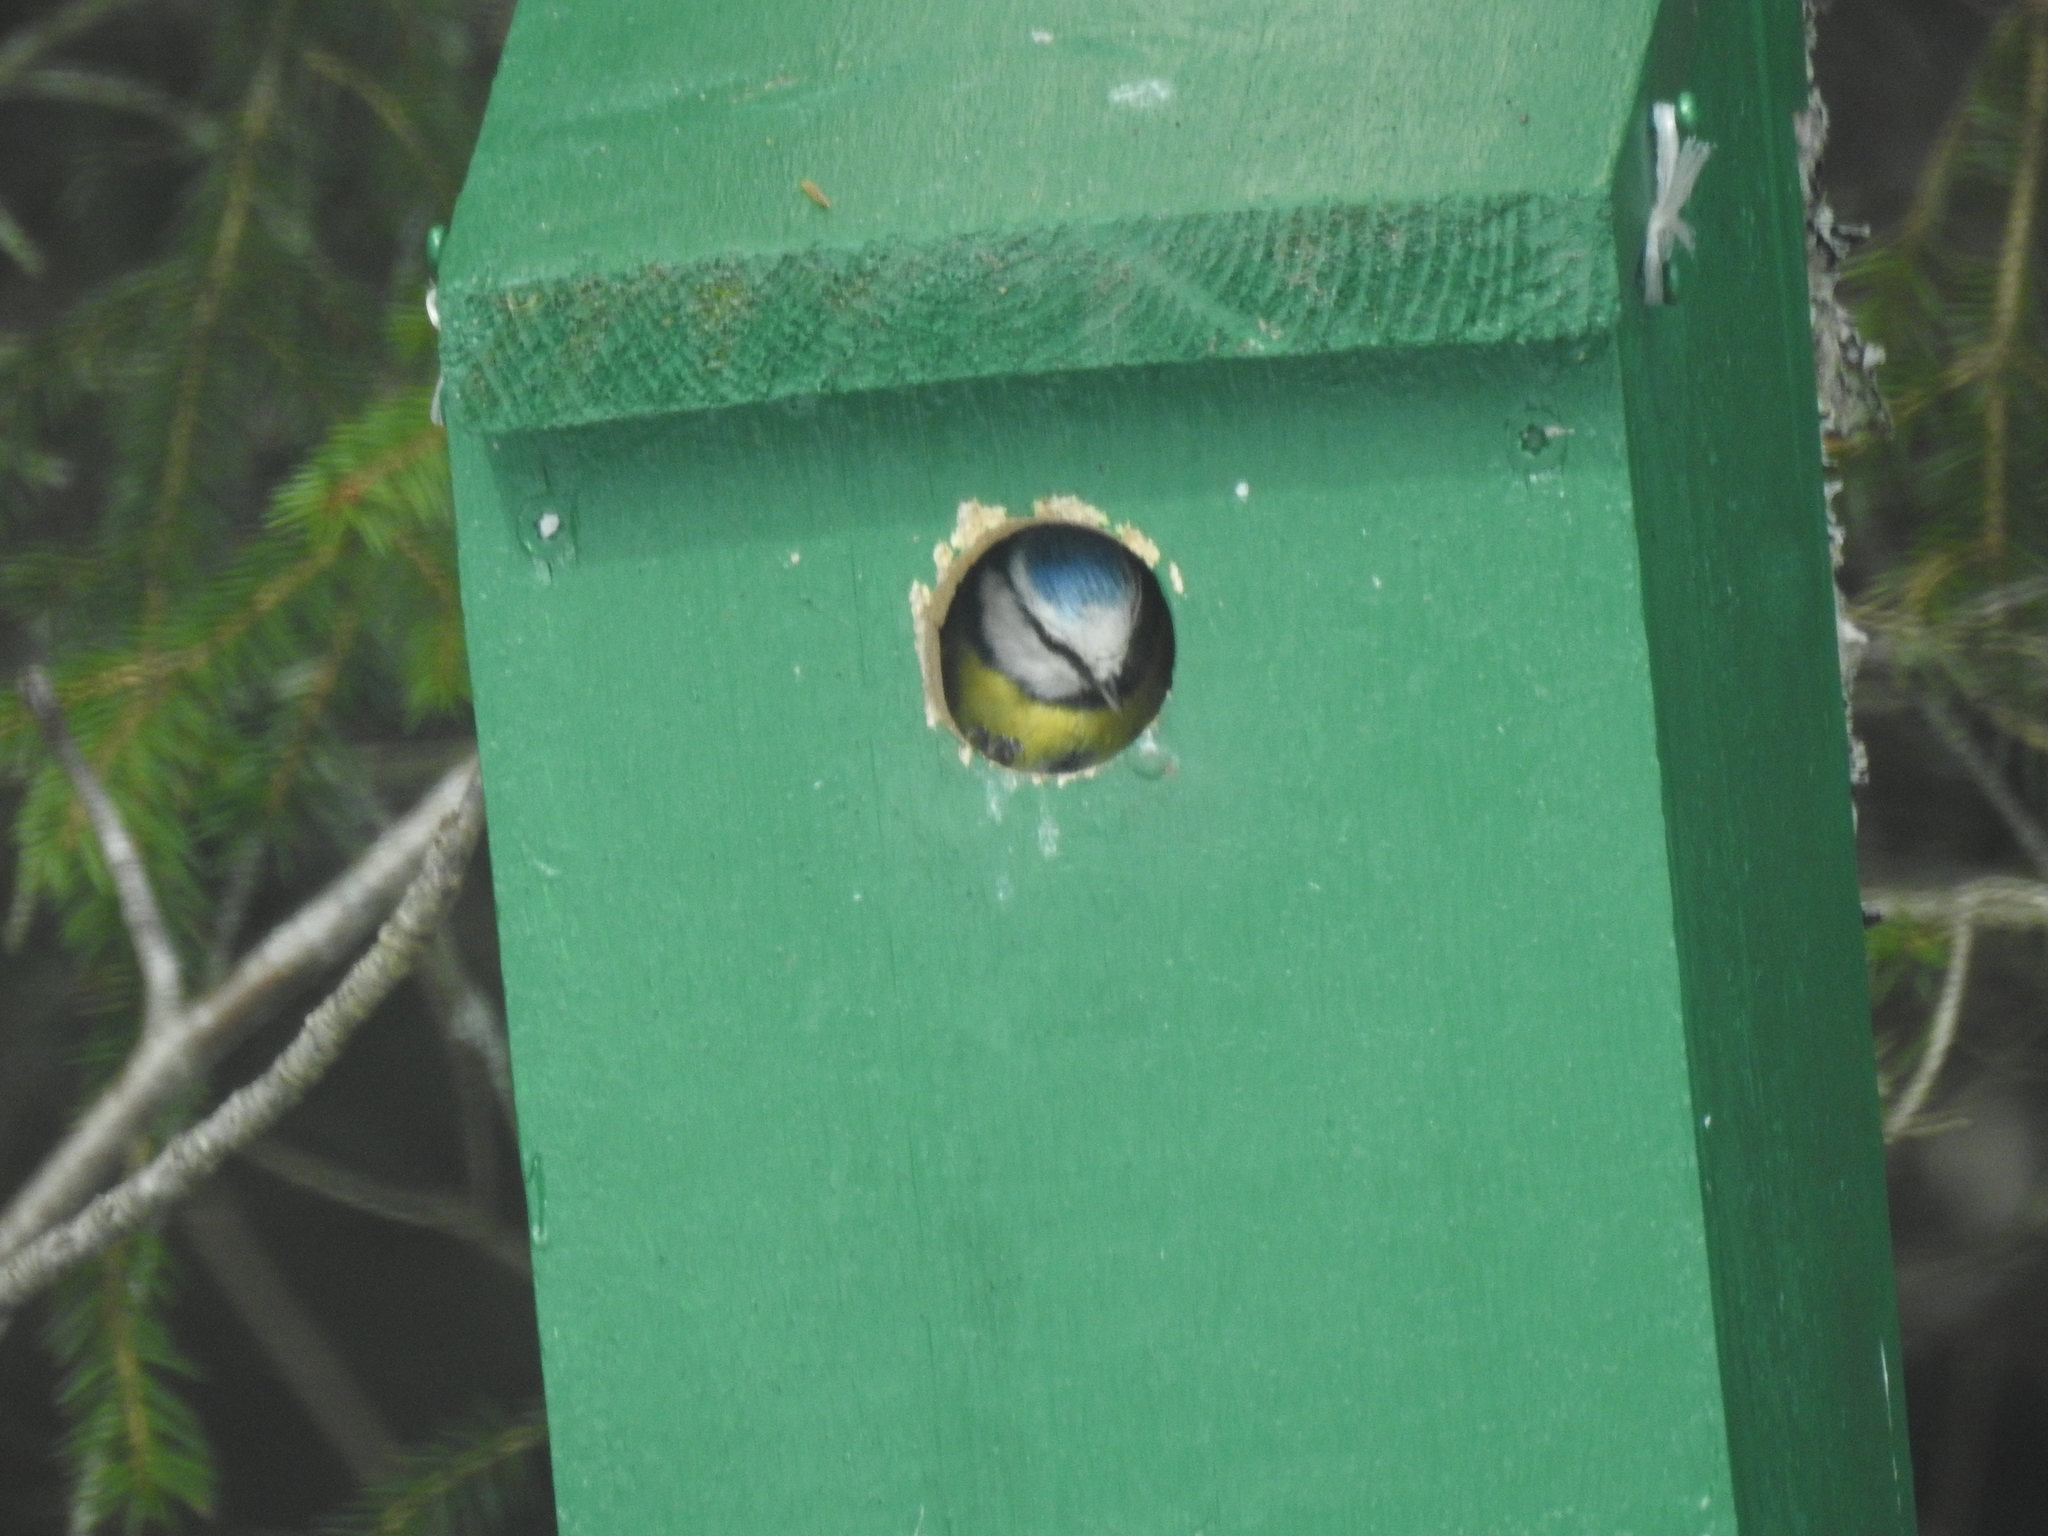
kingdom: Animalia
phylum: Chordata
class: Aves
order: Passeriformes
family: Paridae
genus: Cyanistes
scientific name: Cyanistes caeruleus
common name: Eurasian blue tit
